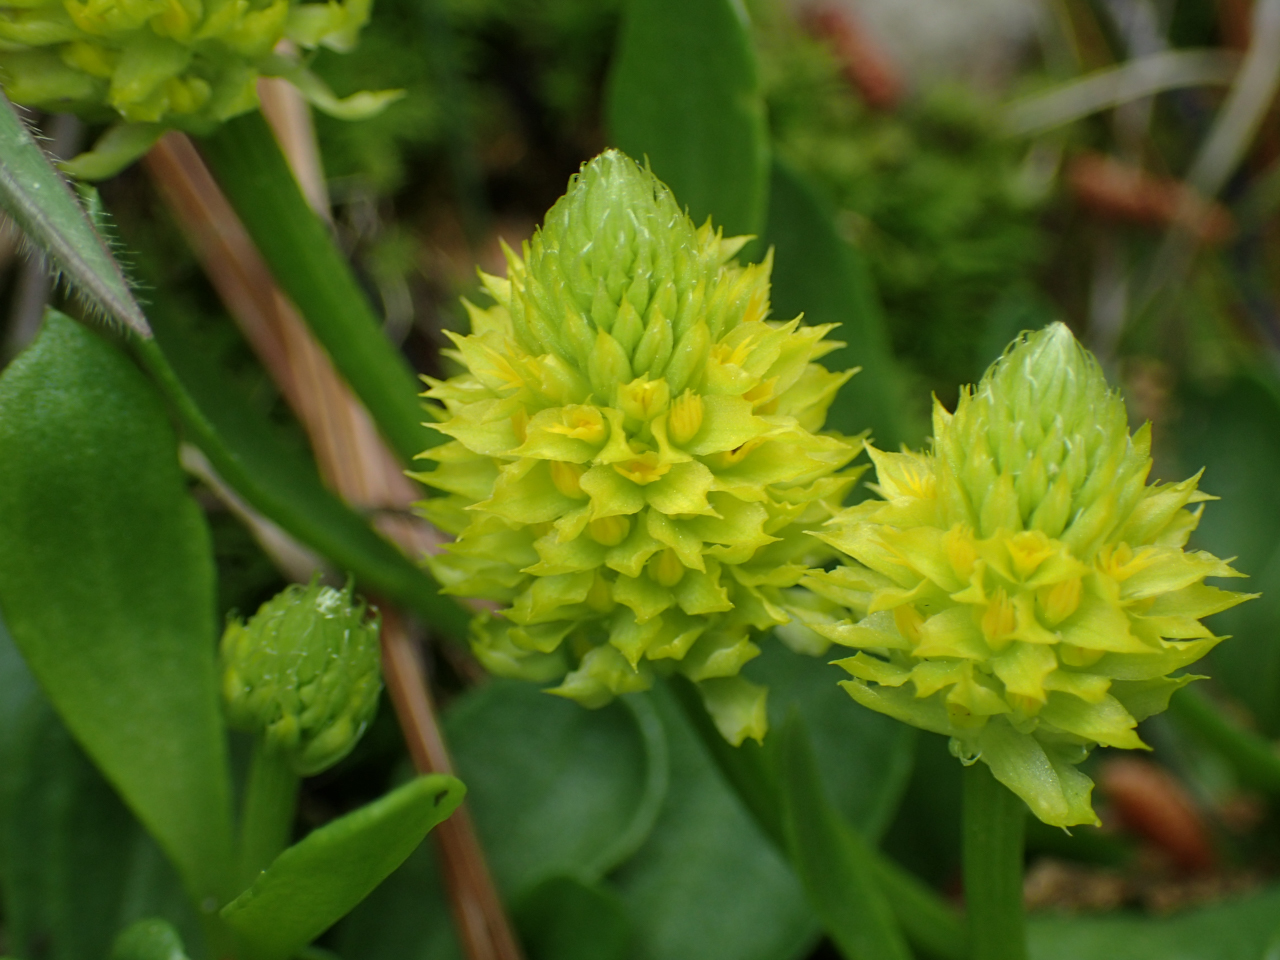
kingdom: Plantae
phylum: Tracheophyta
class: Magnoliopsida
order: Fabales
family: Polygalaceae
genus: Polygala
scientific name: Polygala nana
